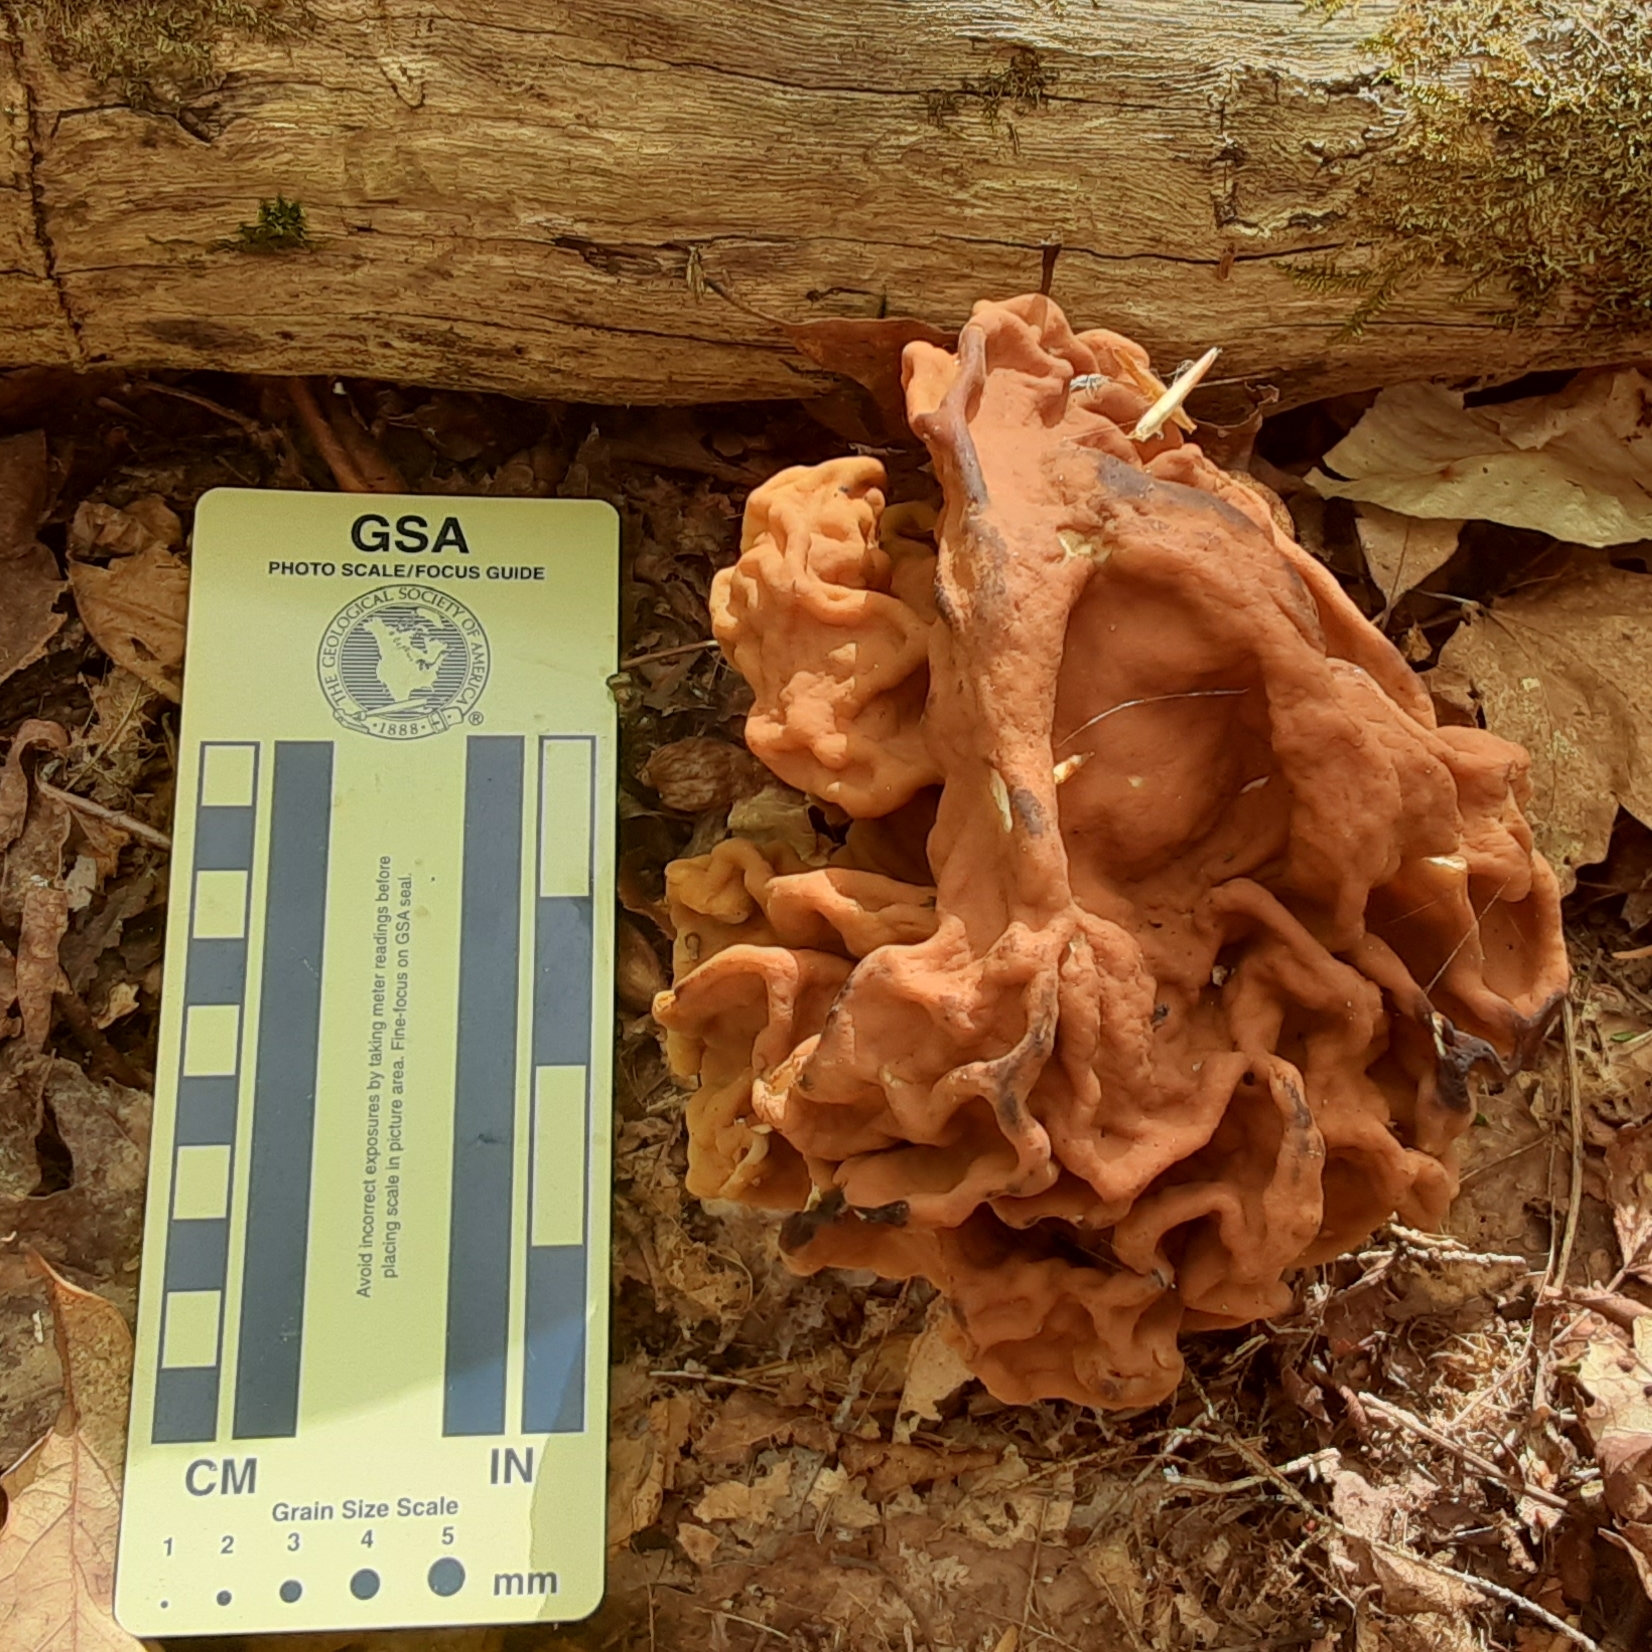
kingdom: Fungi
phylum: Ascomycota
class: Pezizomycetes
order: Pezizales
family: Discinaceae
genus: Gyromitra
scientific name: Gyromitra korfii
